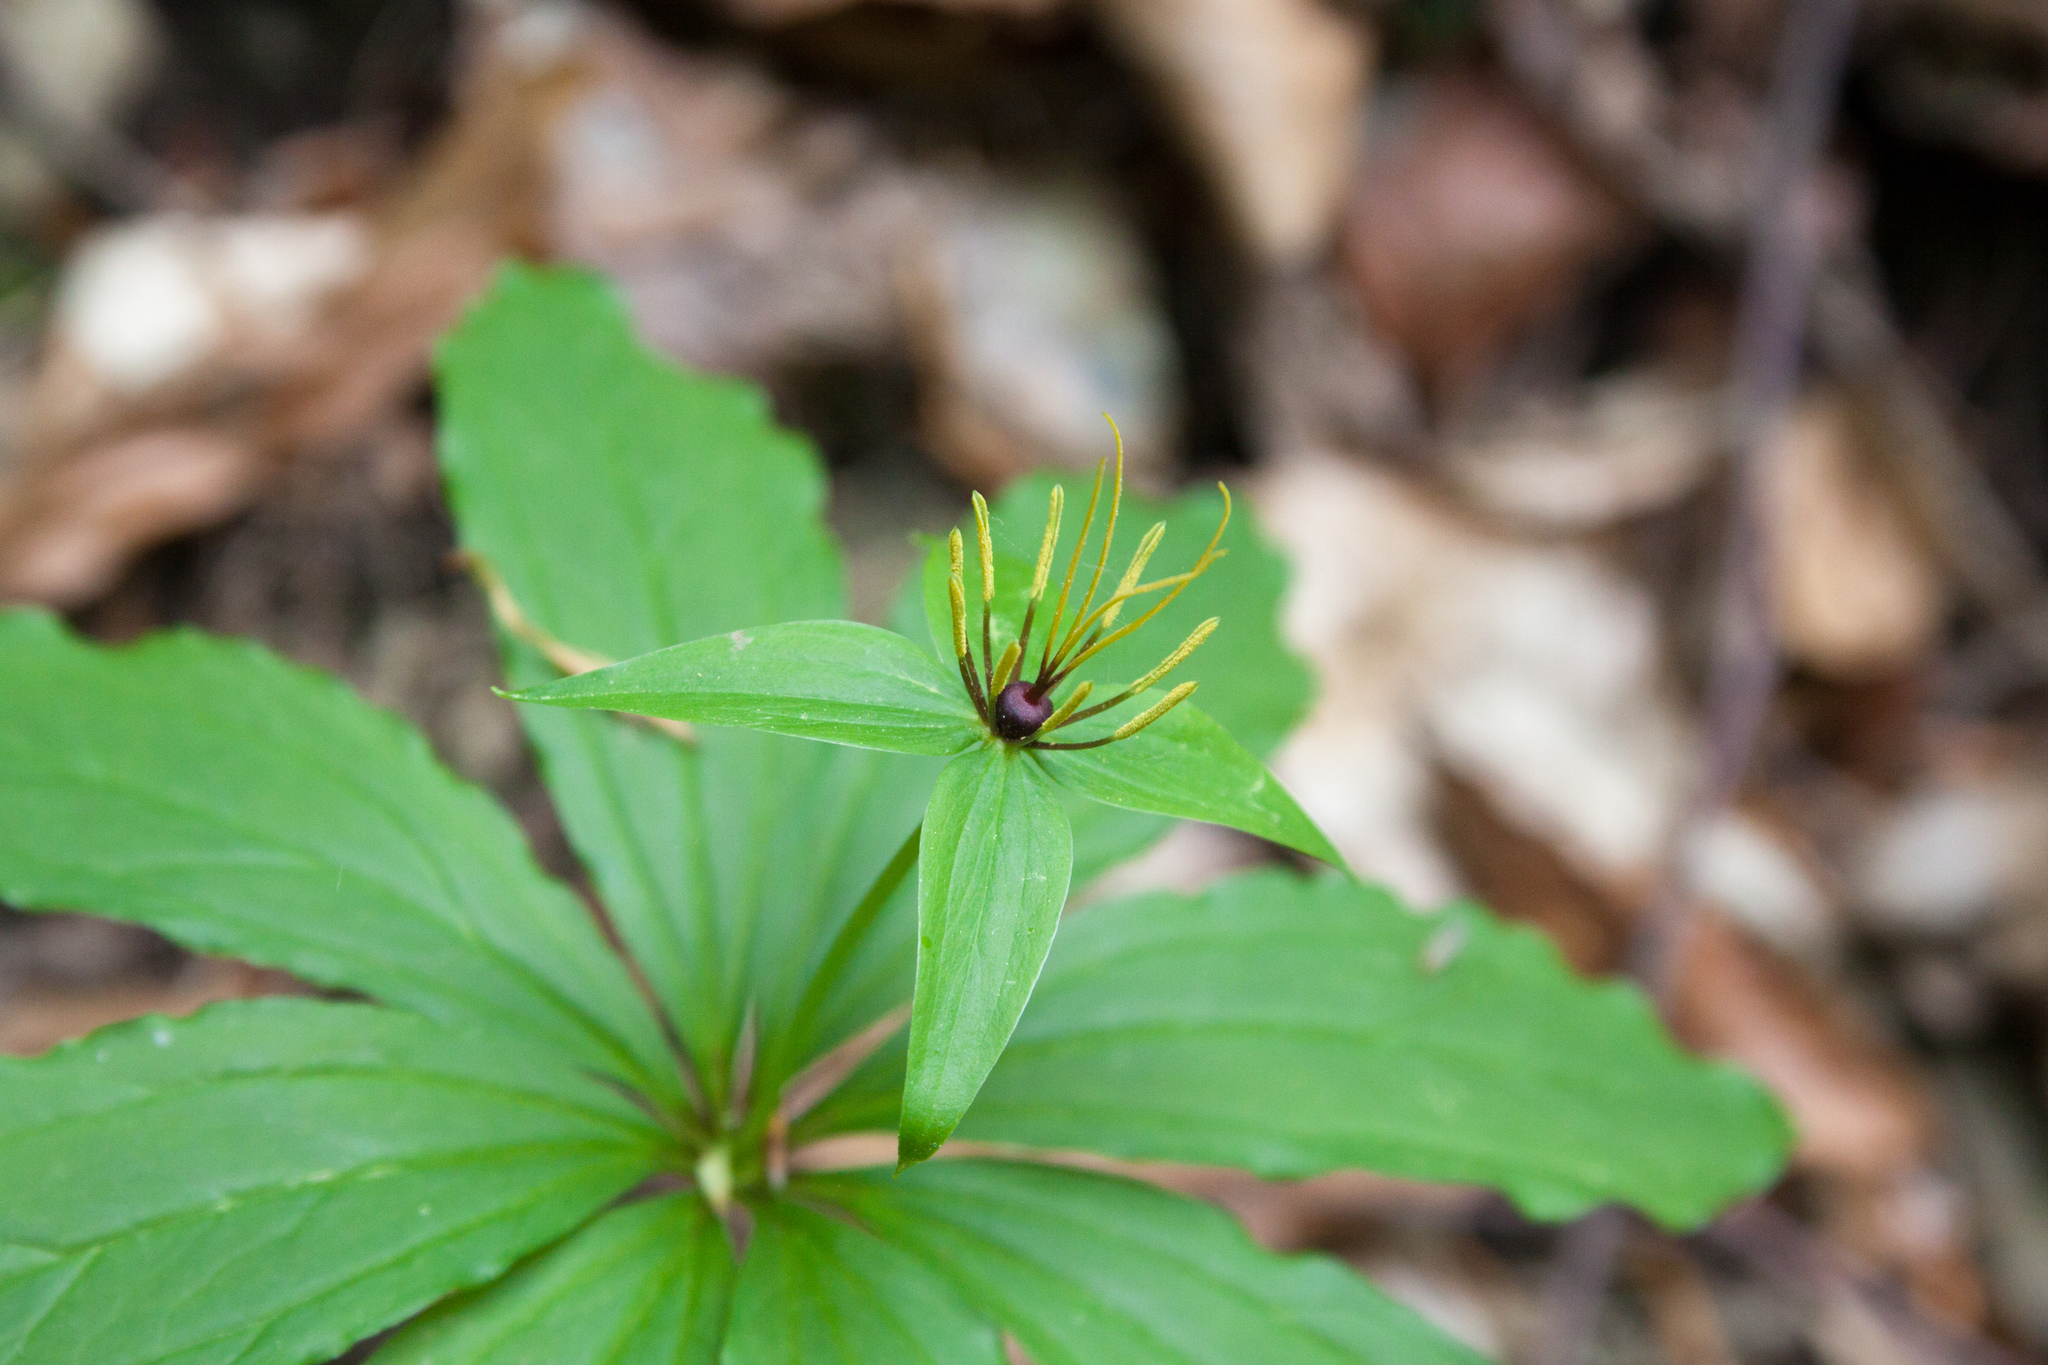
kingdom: Plantae
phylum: Tracheophyta
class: Liliopsida
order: Liliales
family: Melanthiaceae
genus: Paris
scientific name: Paris incompleta
